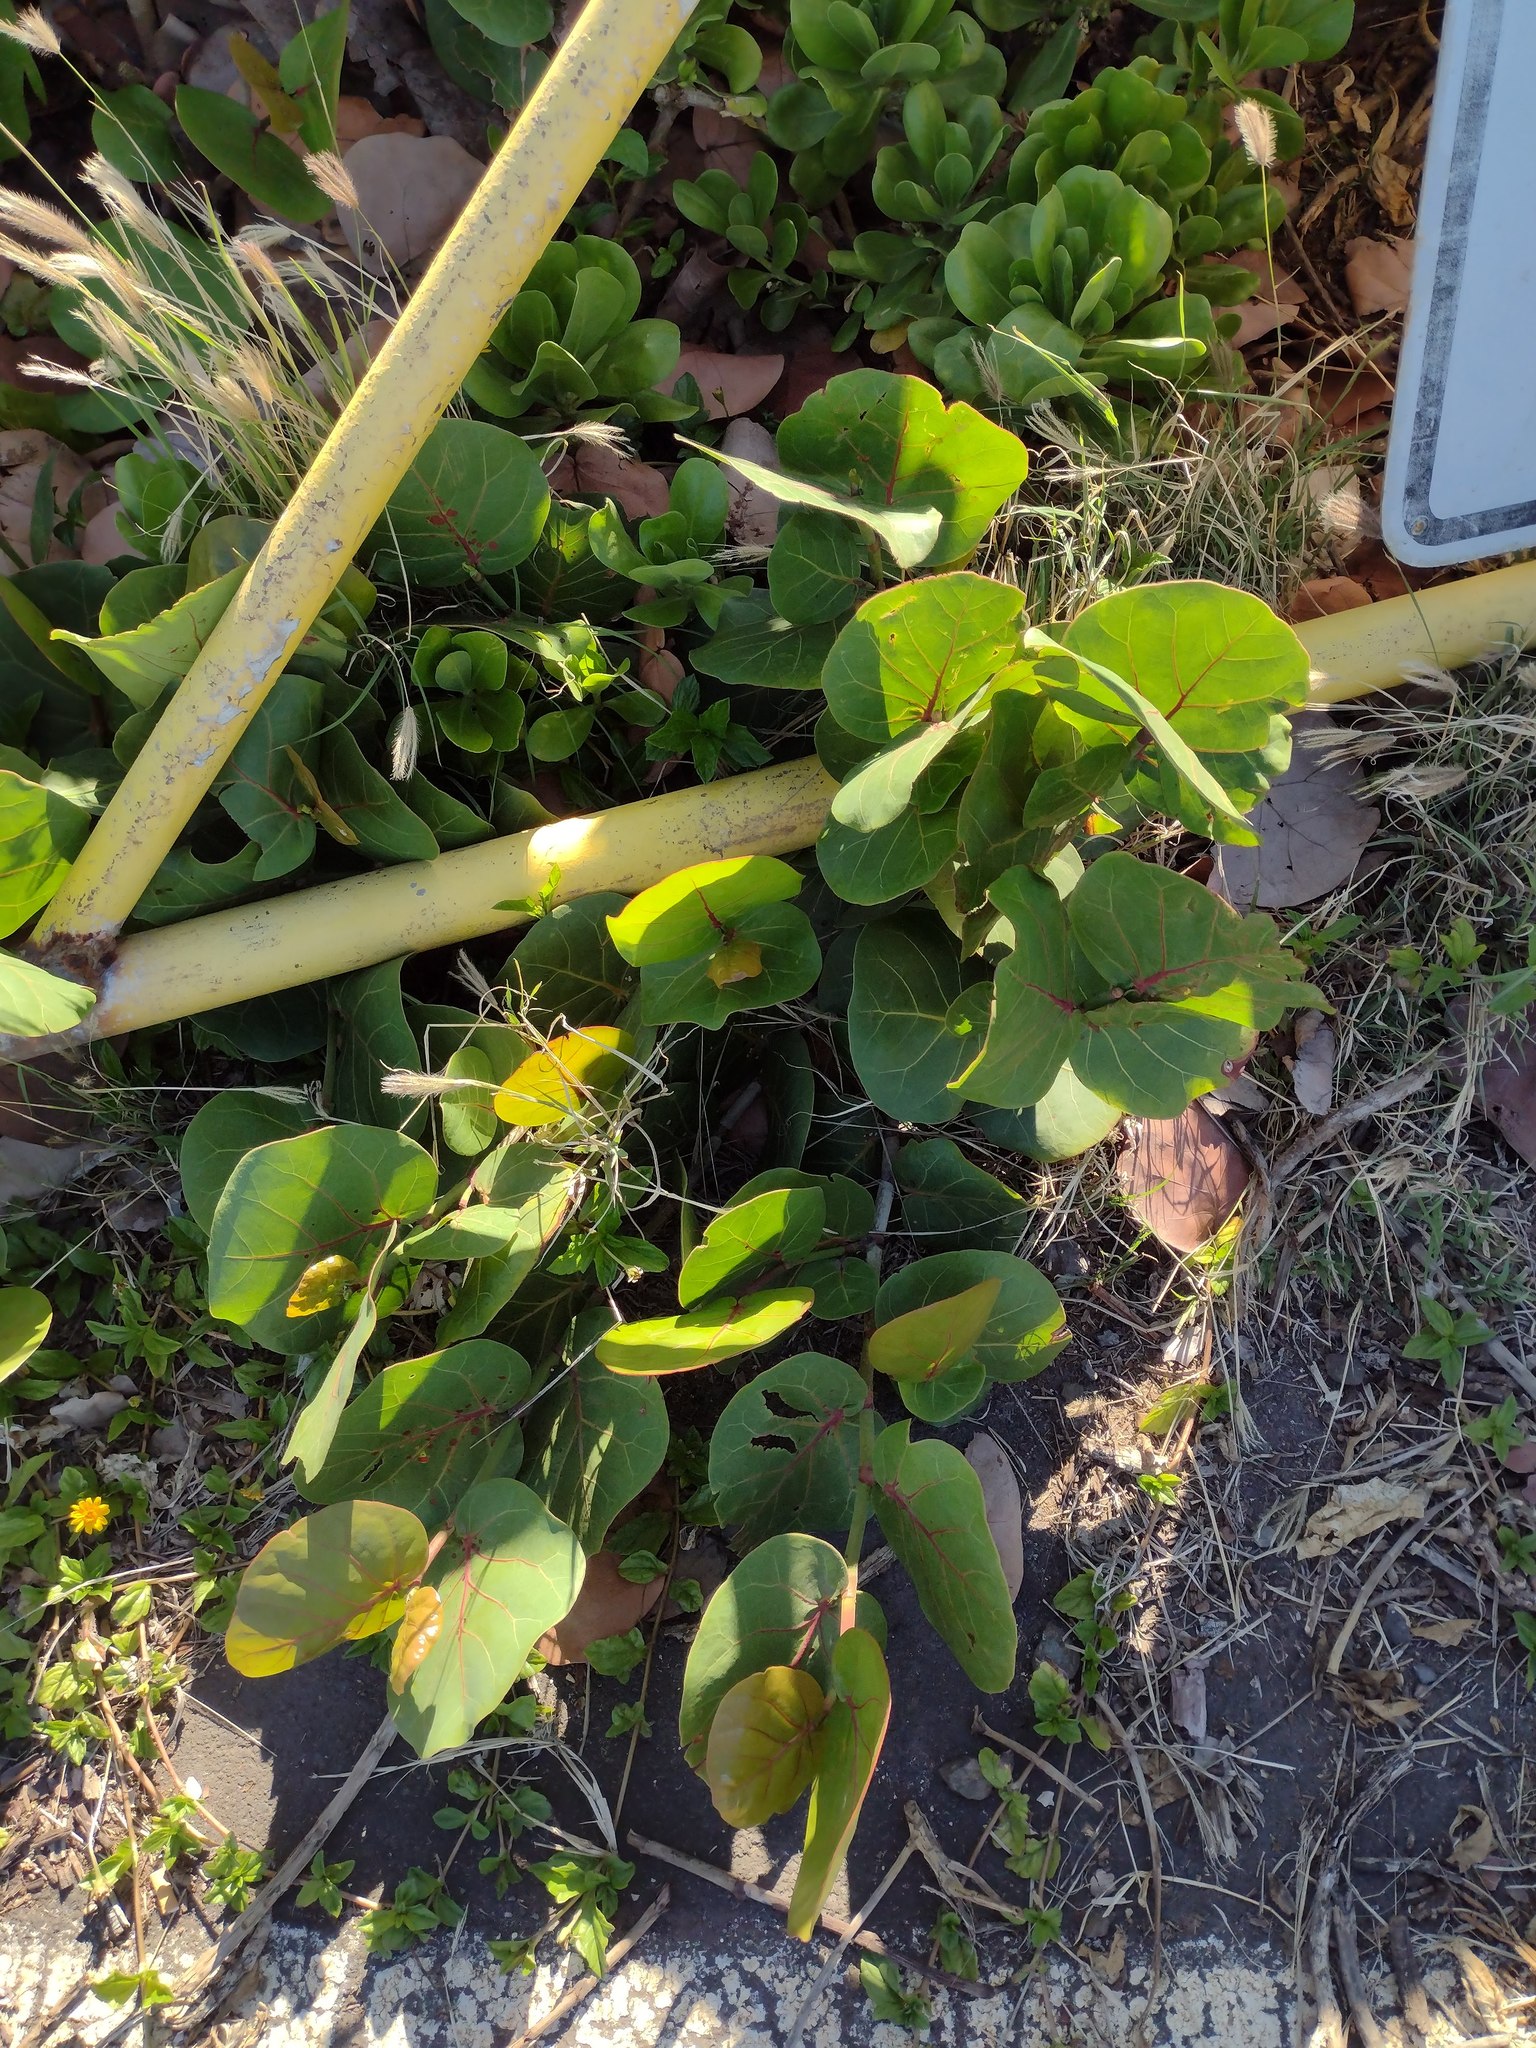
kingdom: Plantae
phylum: Tracheophyta
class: Magnoliopsida
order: Caryophyllales
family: Polygonaceae
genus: Coccoloba
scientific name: Coccoloba uvifera
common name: Seagrape
